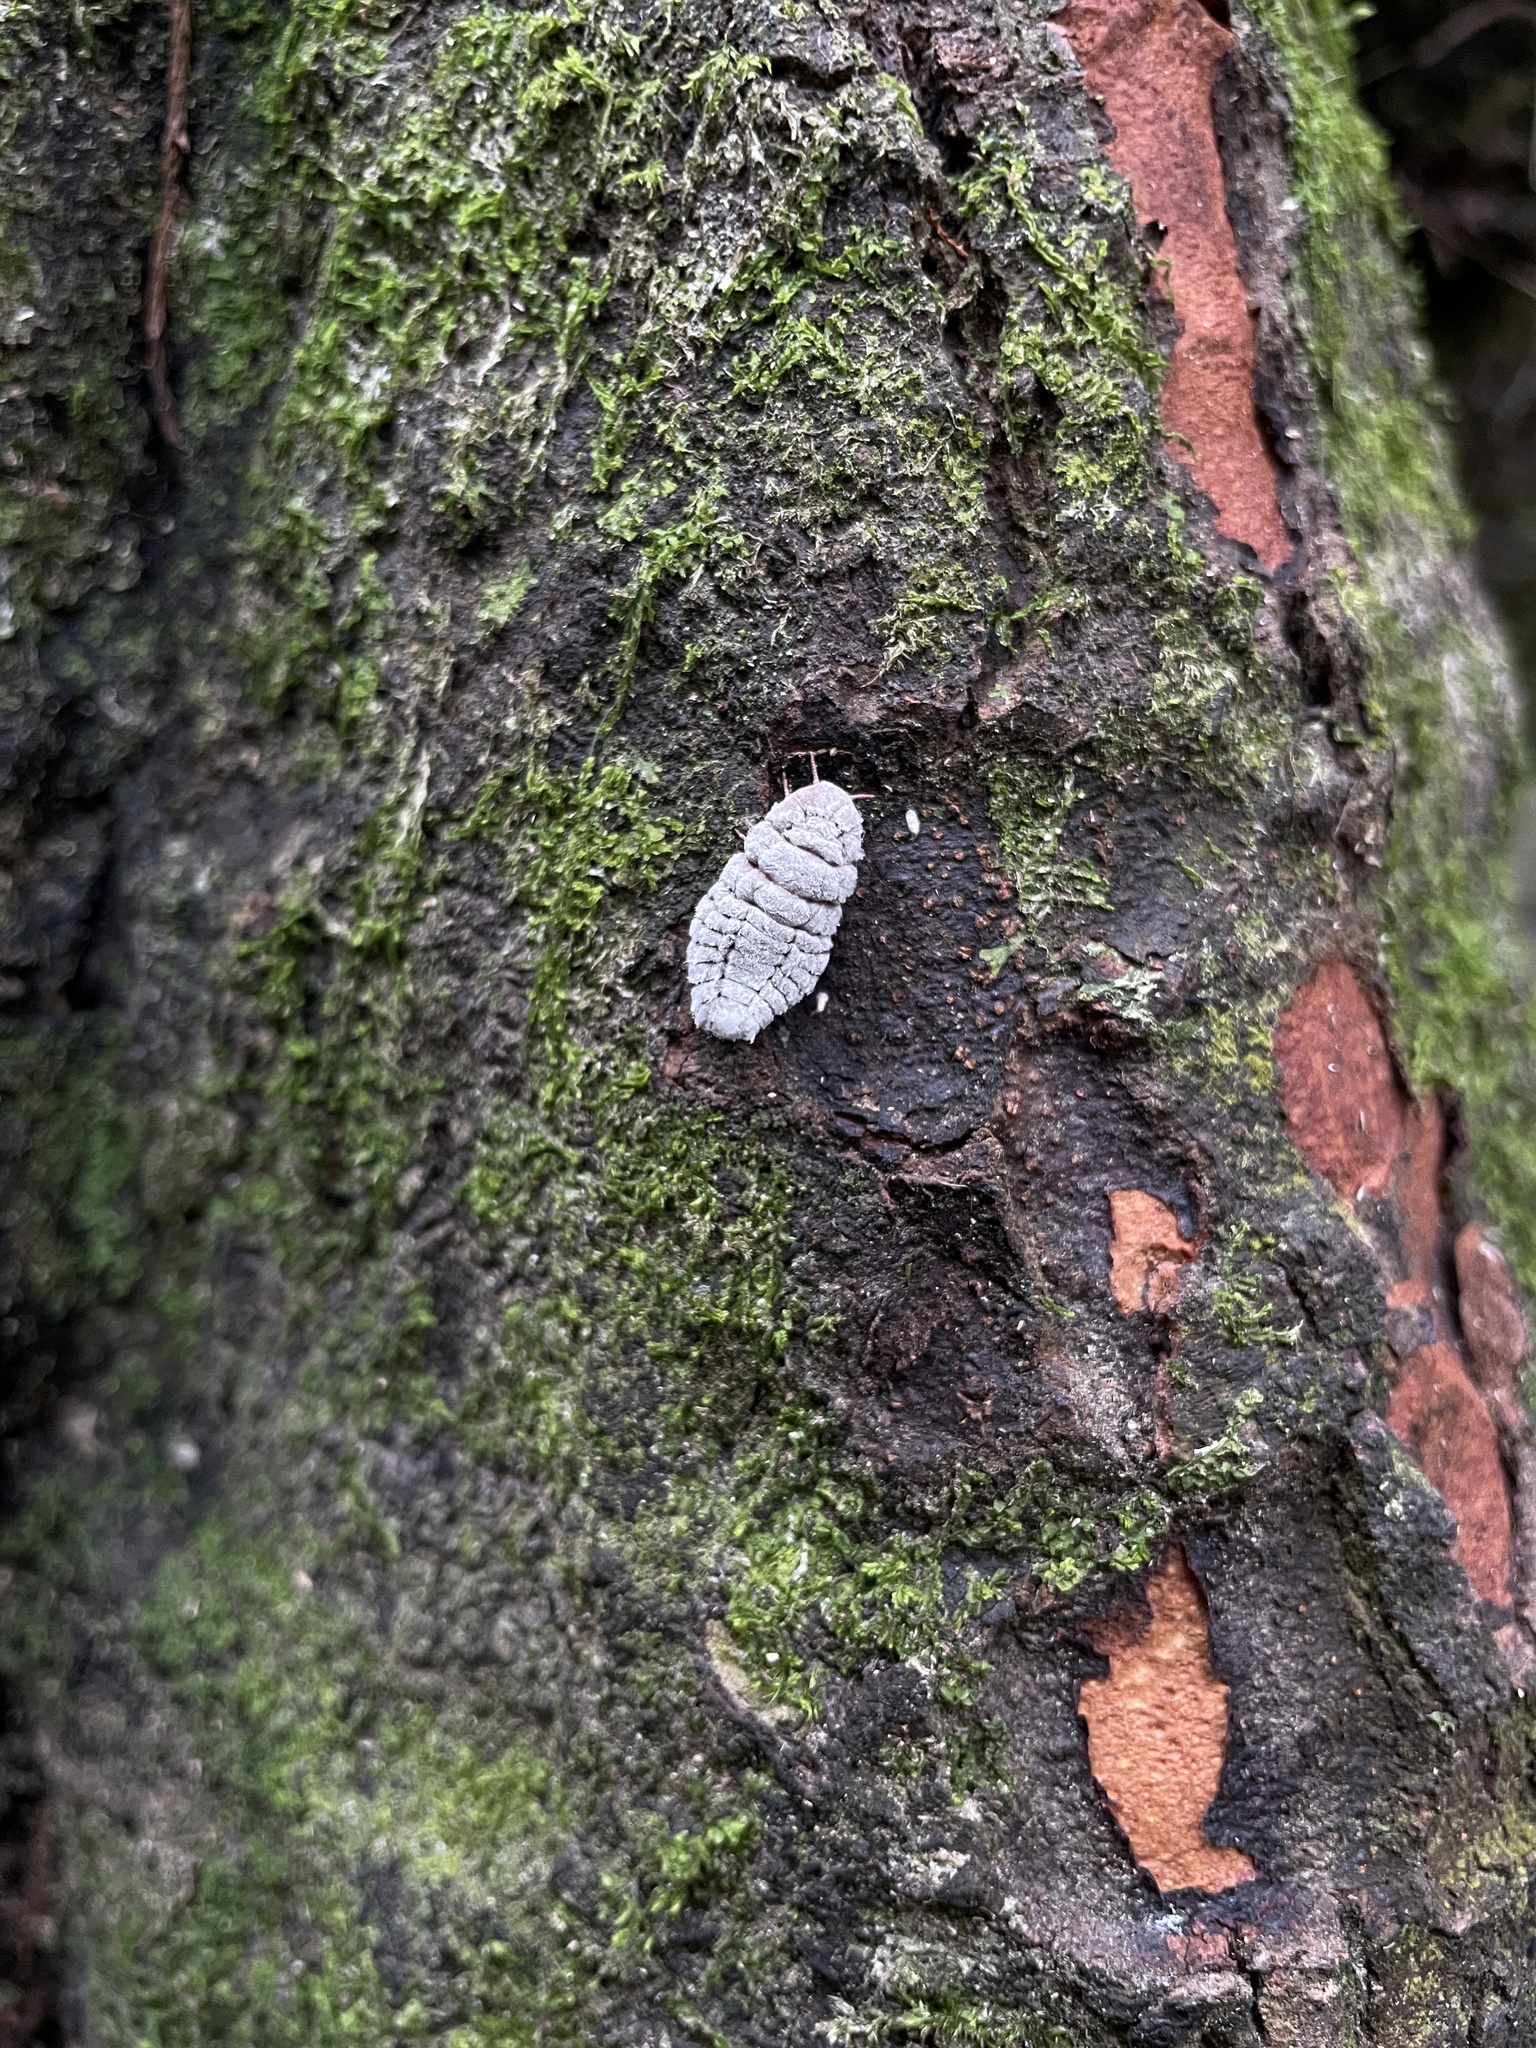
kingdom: Animalia
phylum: Arthropoda
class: Insecta
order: Hemiptera
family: Margarodidae
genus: Coelostomidia
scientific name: Coelostomidia zealandica
